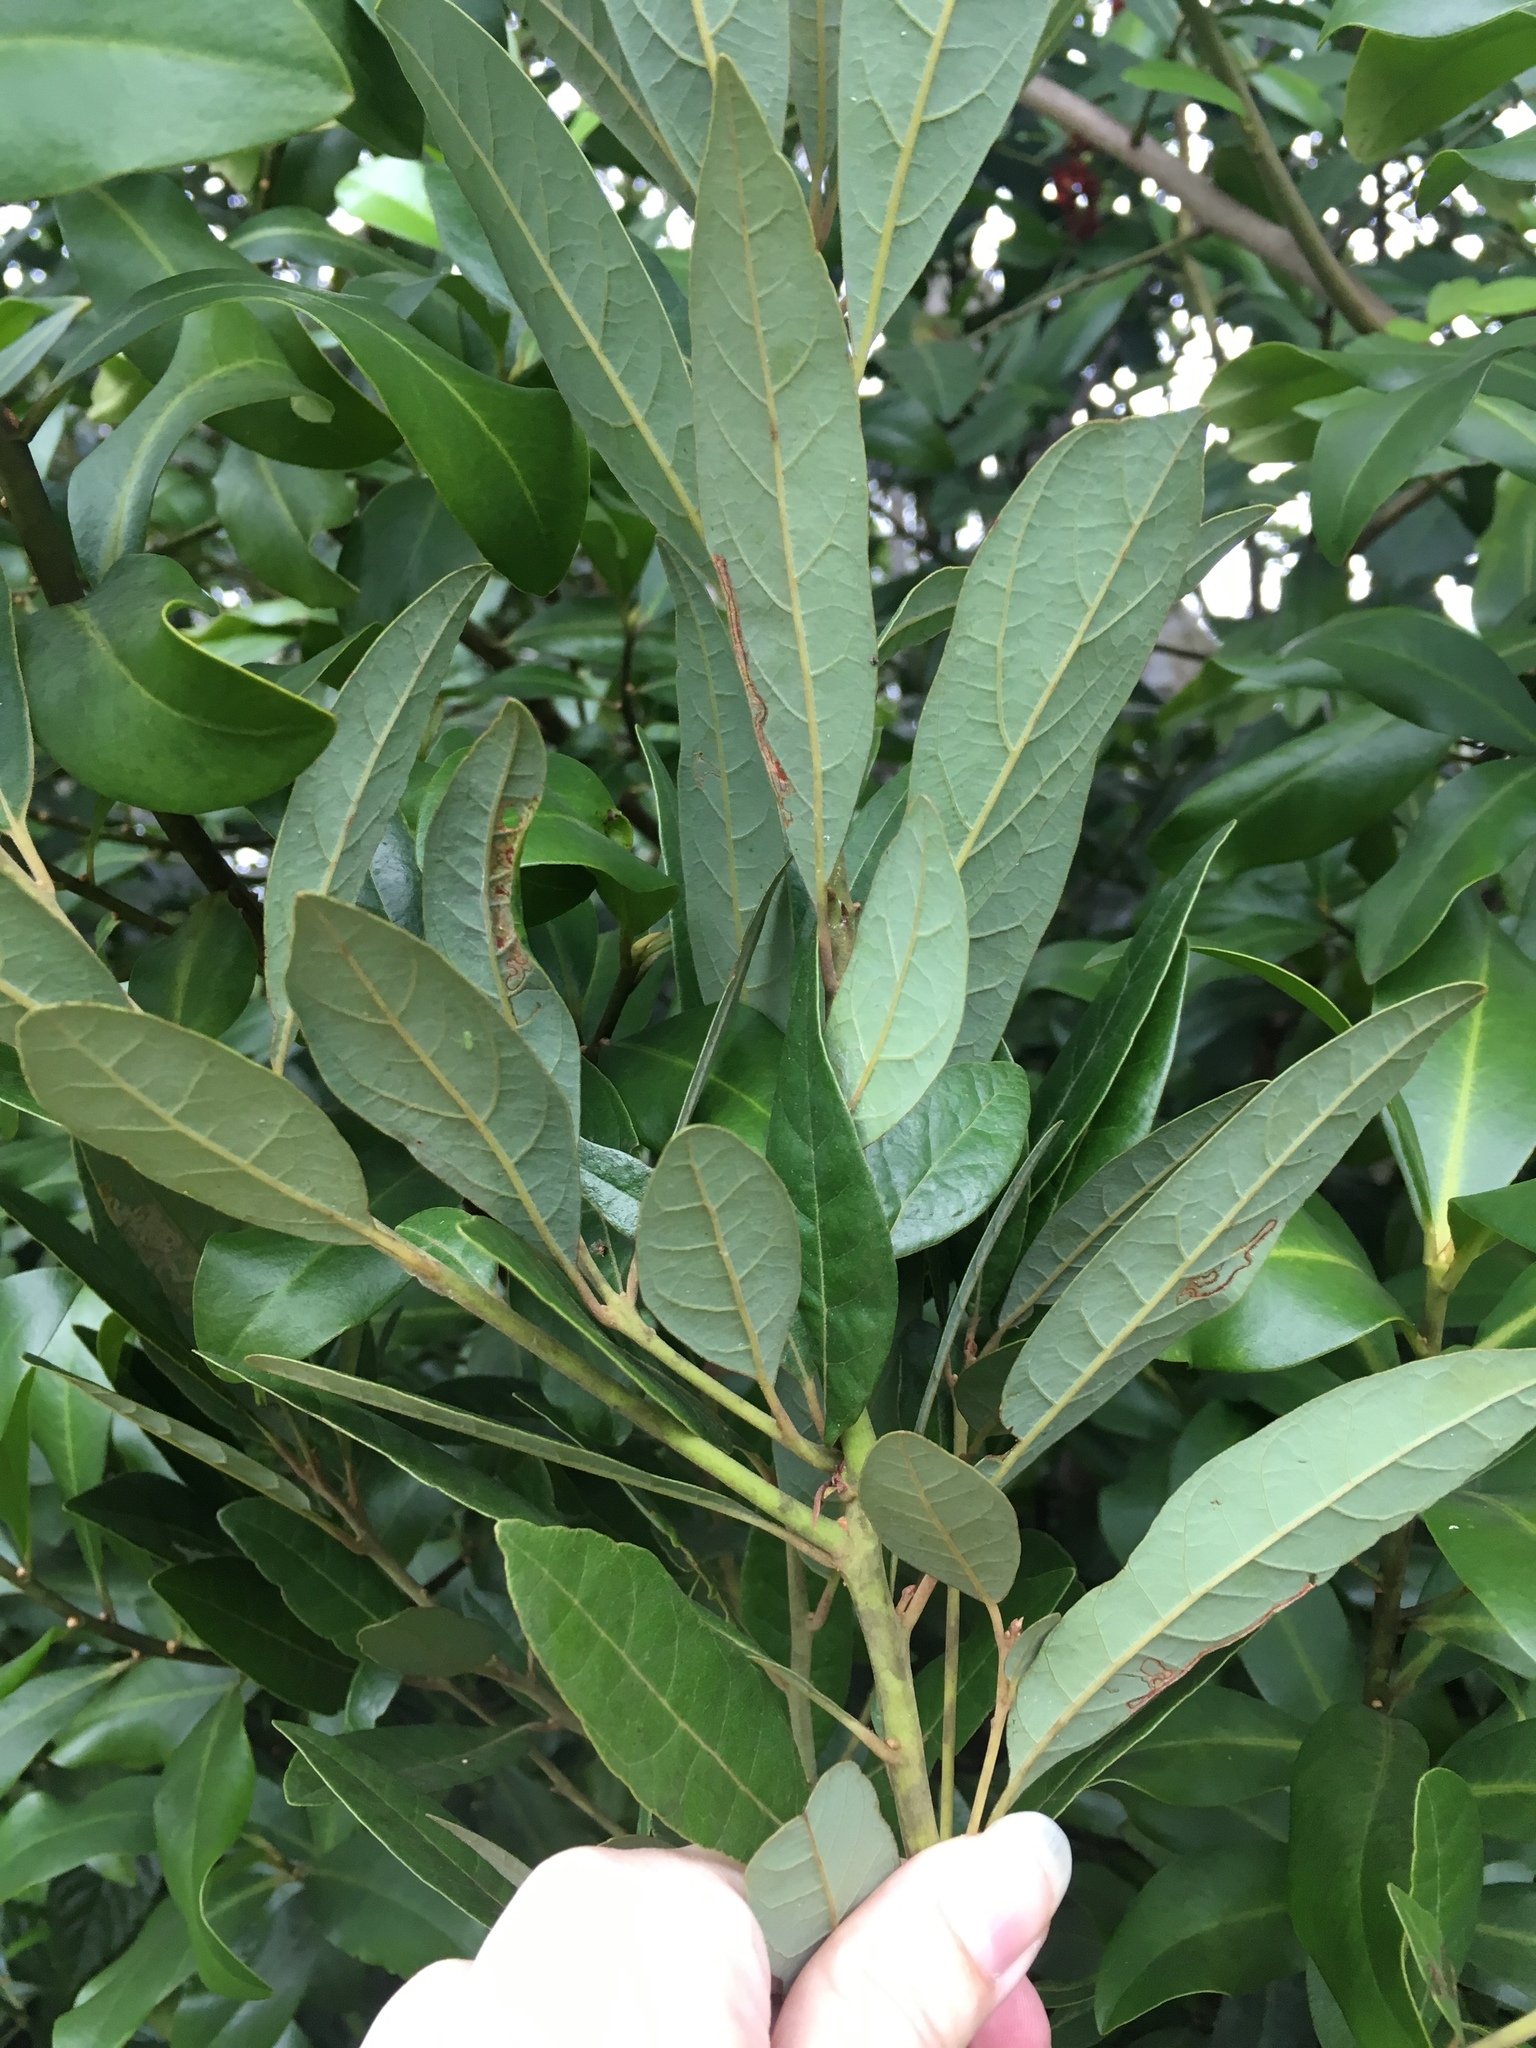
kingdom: Plantae
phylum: Tracheophyta
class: Magnoliopsida
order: Laurales
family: Lauraceae
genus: Persea
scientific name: Persea palustris
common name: Swampbay
